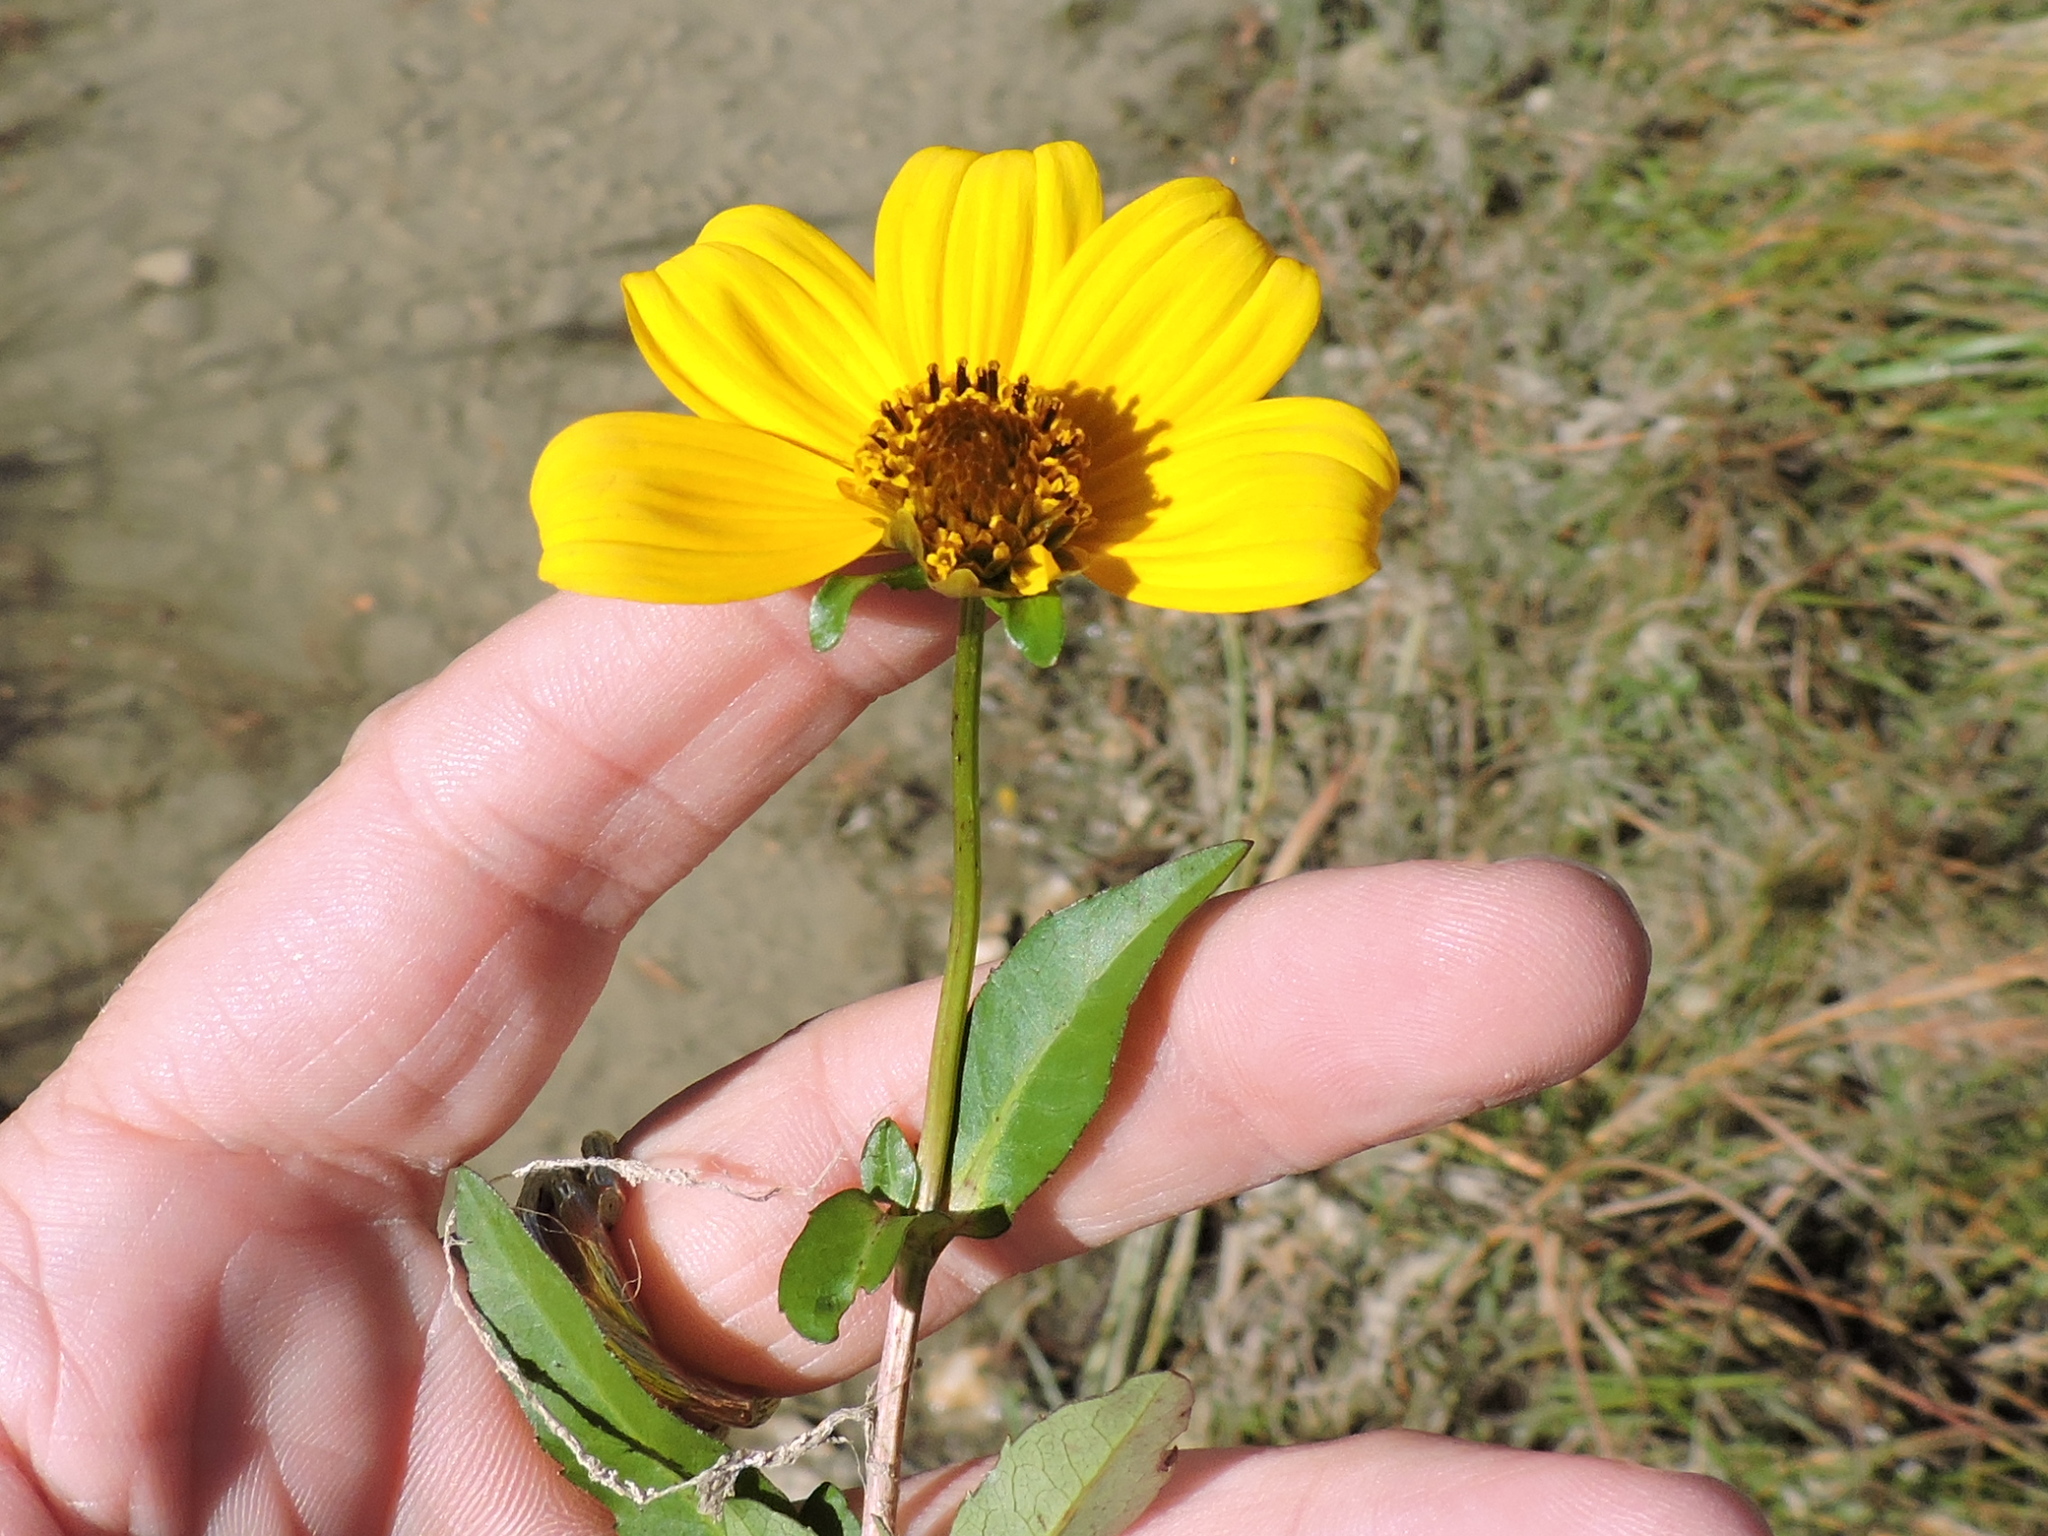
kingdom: Plantae
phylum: Tracheophyta
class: Magnoliopsida
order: Asterales
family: Asteraceae
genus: Bidens
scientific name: Bidens laevis
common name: Larger bur-marigold
